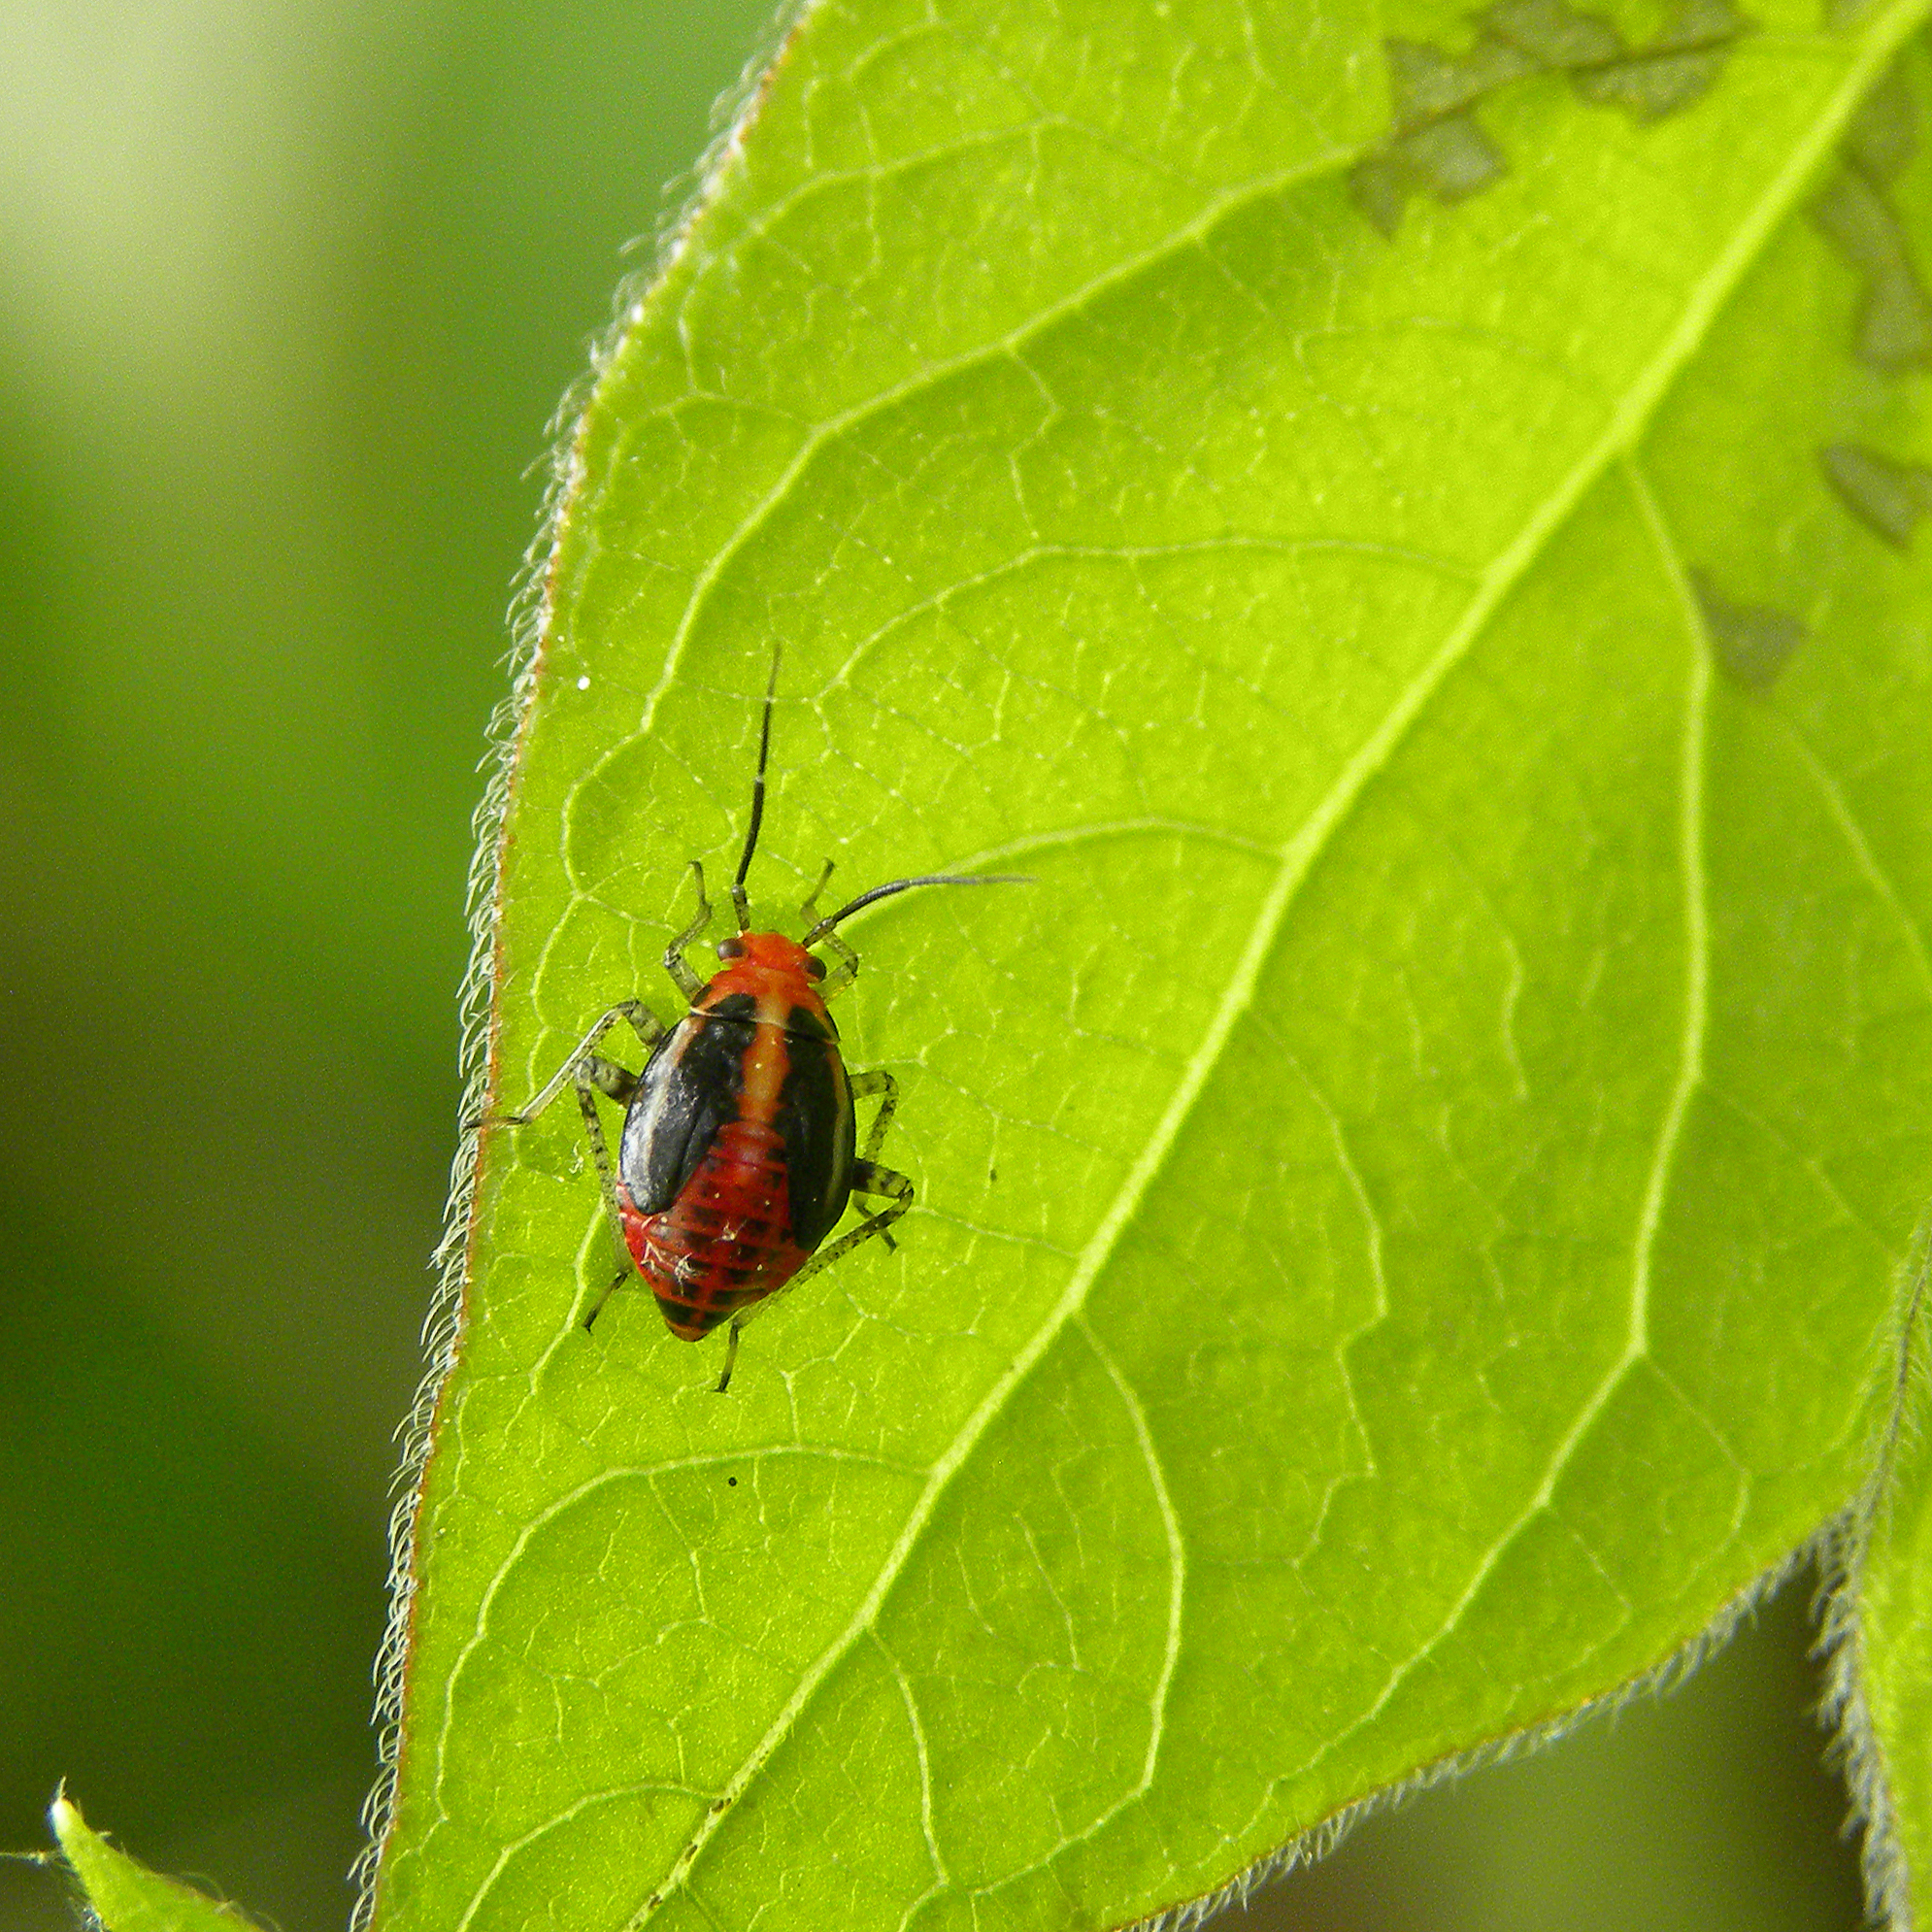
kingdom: Animalia
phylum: Arthropoda
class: Insecta
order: Hemiptera
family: Miridae
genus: Poecilocapsus
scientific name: Poecilocapsus lineatus
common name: Four-lined plant bug
